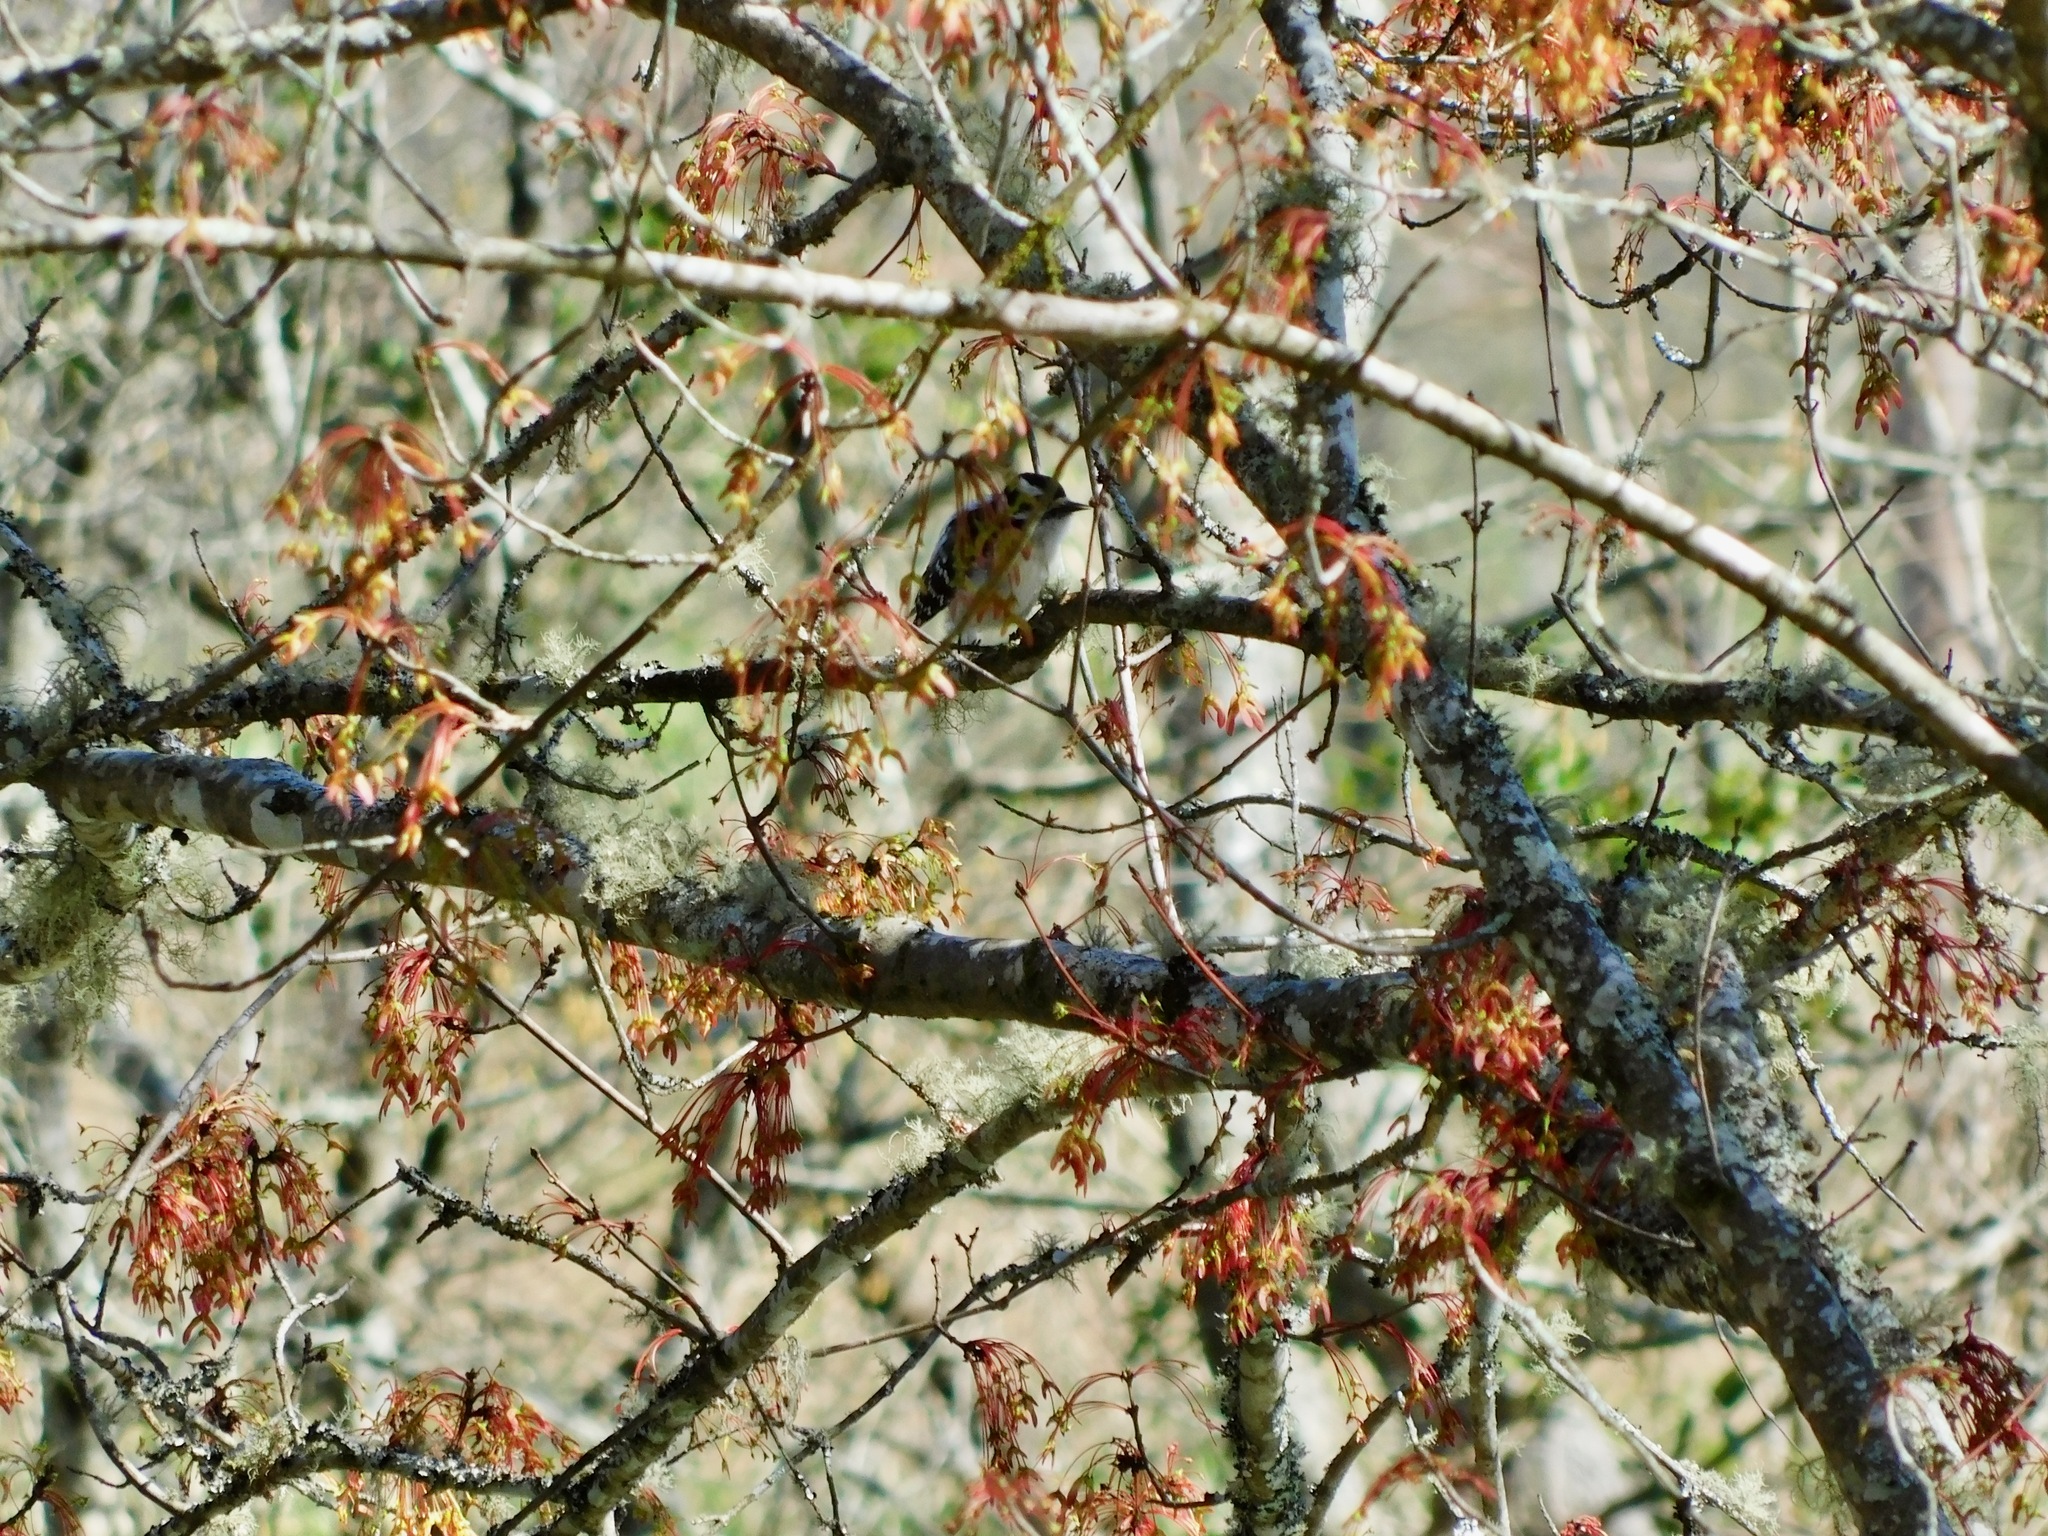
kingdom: Animalia
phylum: Chordata
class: Aves
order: Piciformes
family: Picidae
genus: Dryobates
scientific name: Dryobates pubescens
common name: Downy woodpecker
